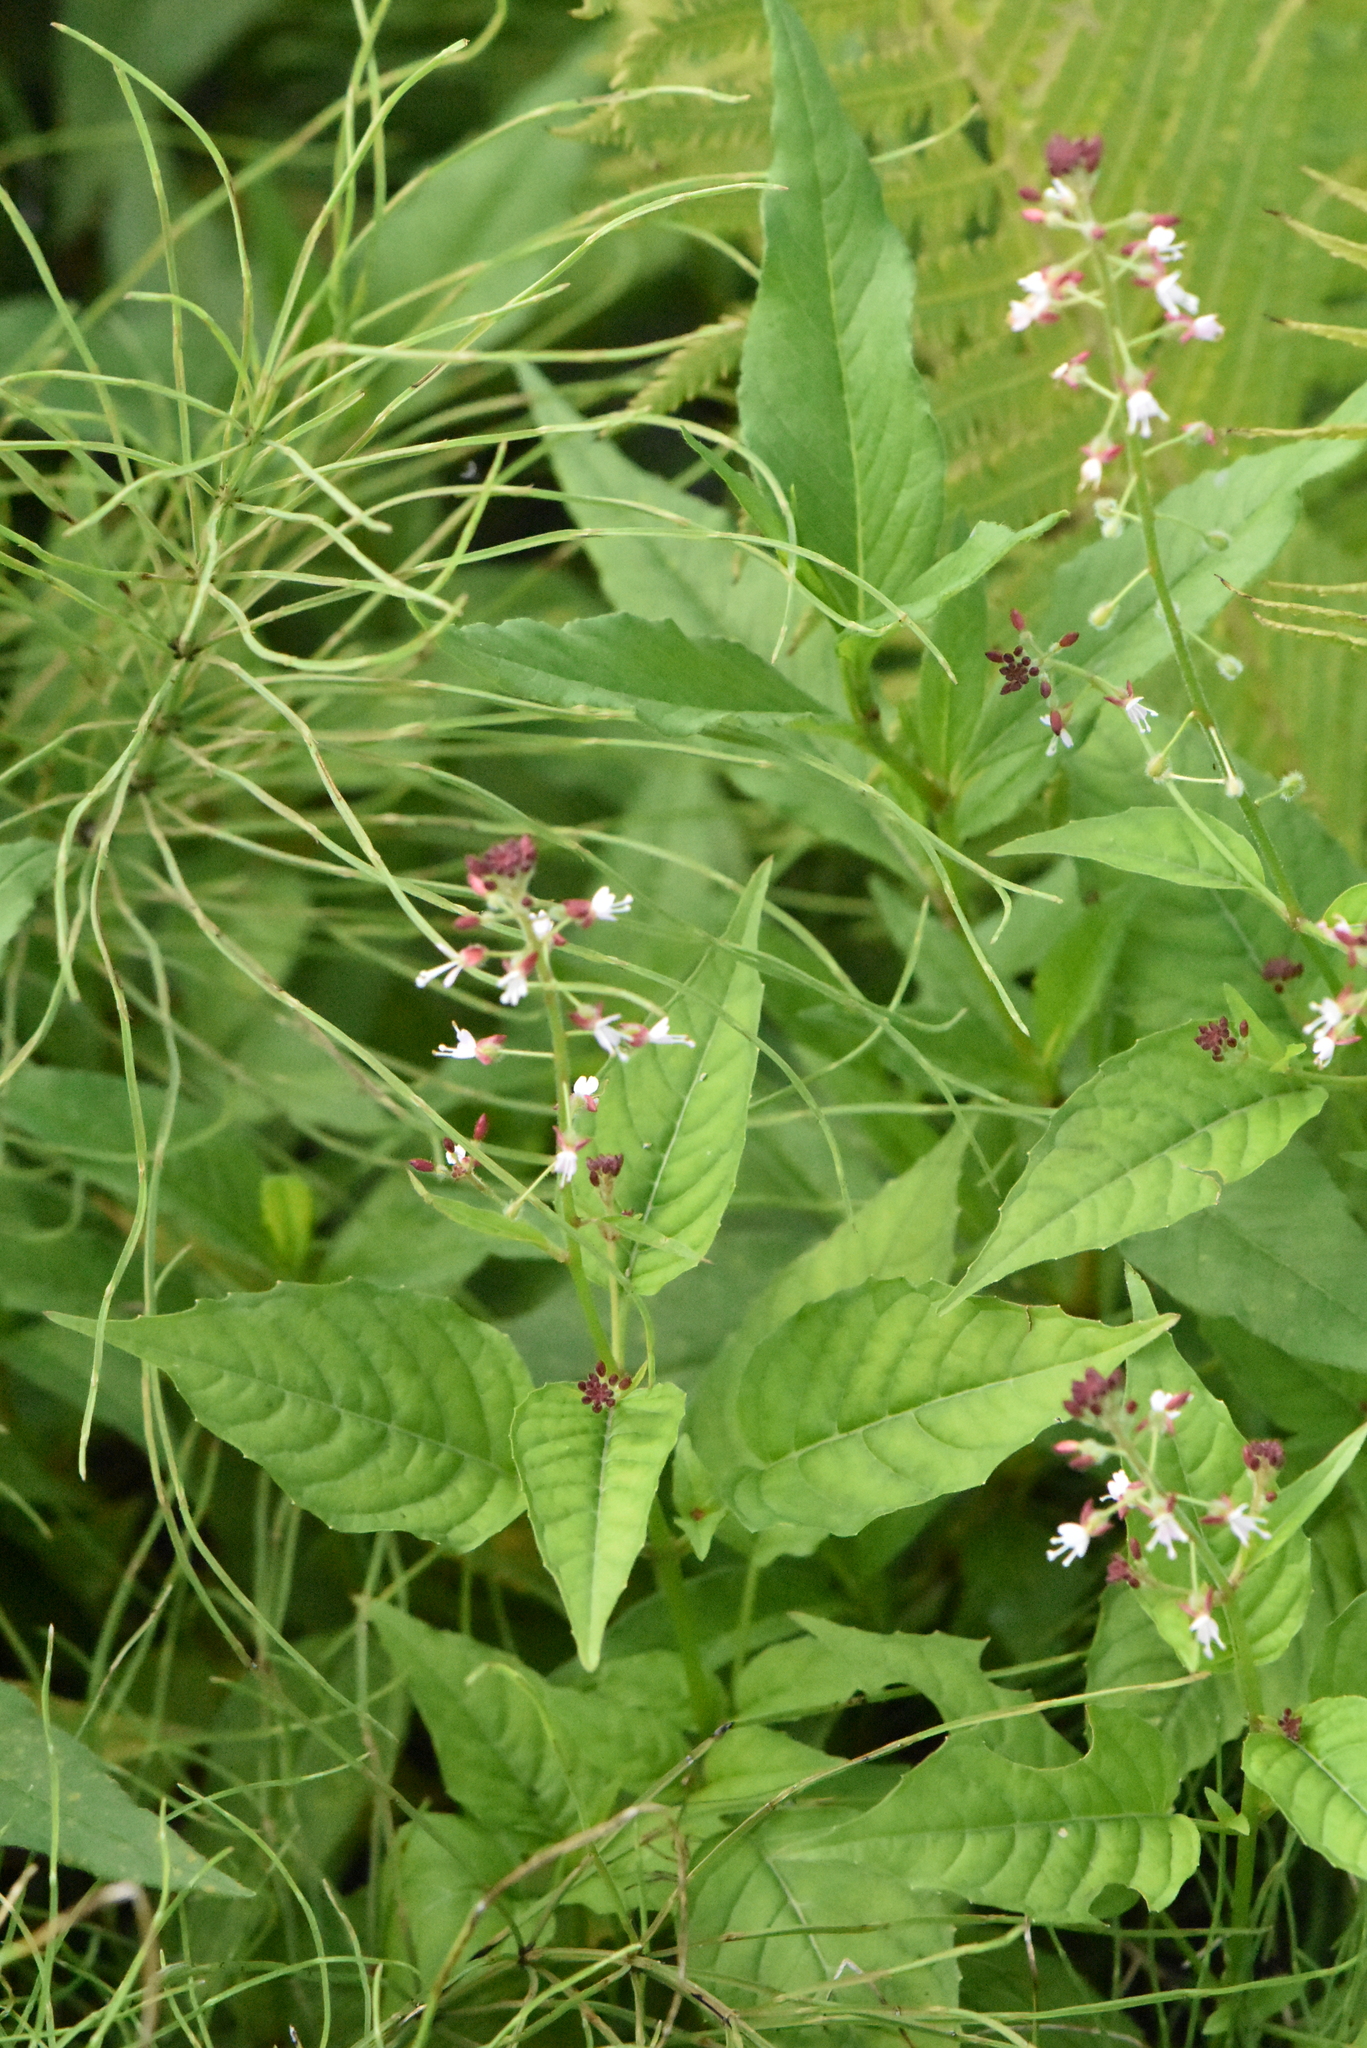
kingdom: Plantae
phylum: Tracheophyta
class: Magnoliopsida
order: Myrtales
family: Onagraceae
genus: Circaea
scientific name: Circaea canadensis
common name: Broad-leaved enchanter's nightshade
